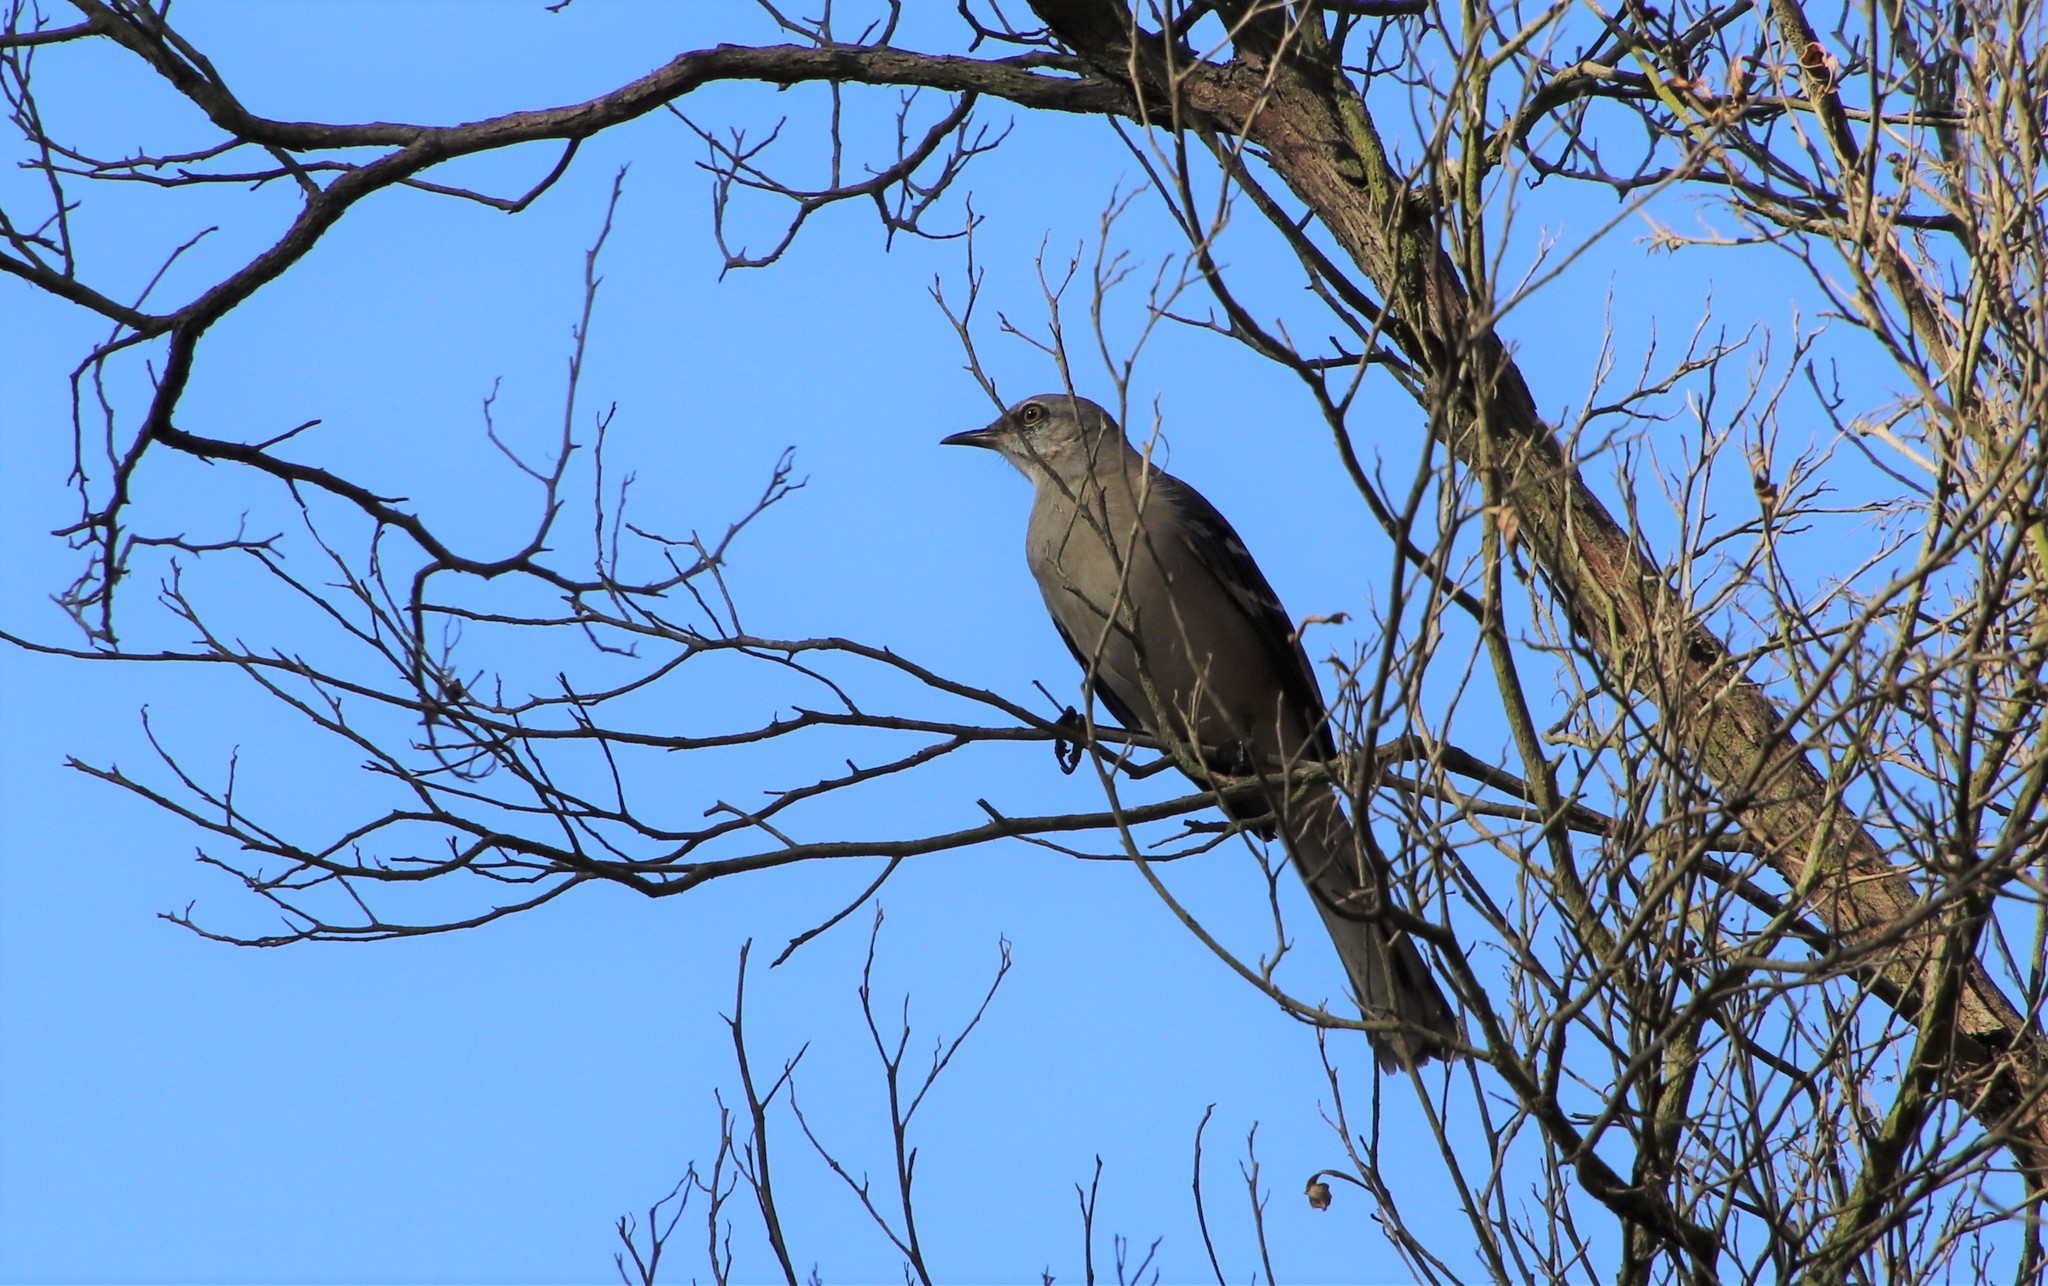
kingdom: Animalia
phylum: Chordata
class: Aves
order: Passeriformes
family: Mimidae
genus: Mimus
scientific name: Mimus polyglottos
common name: Northern mockingbird
